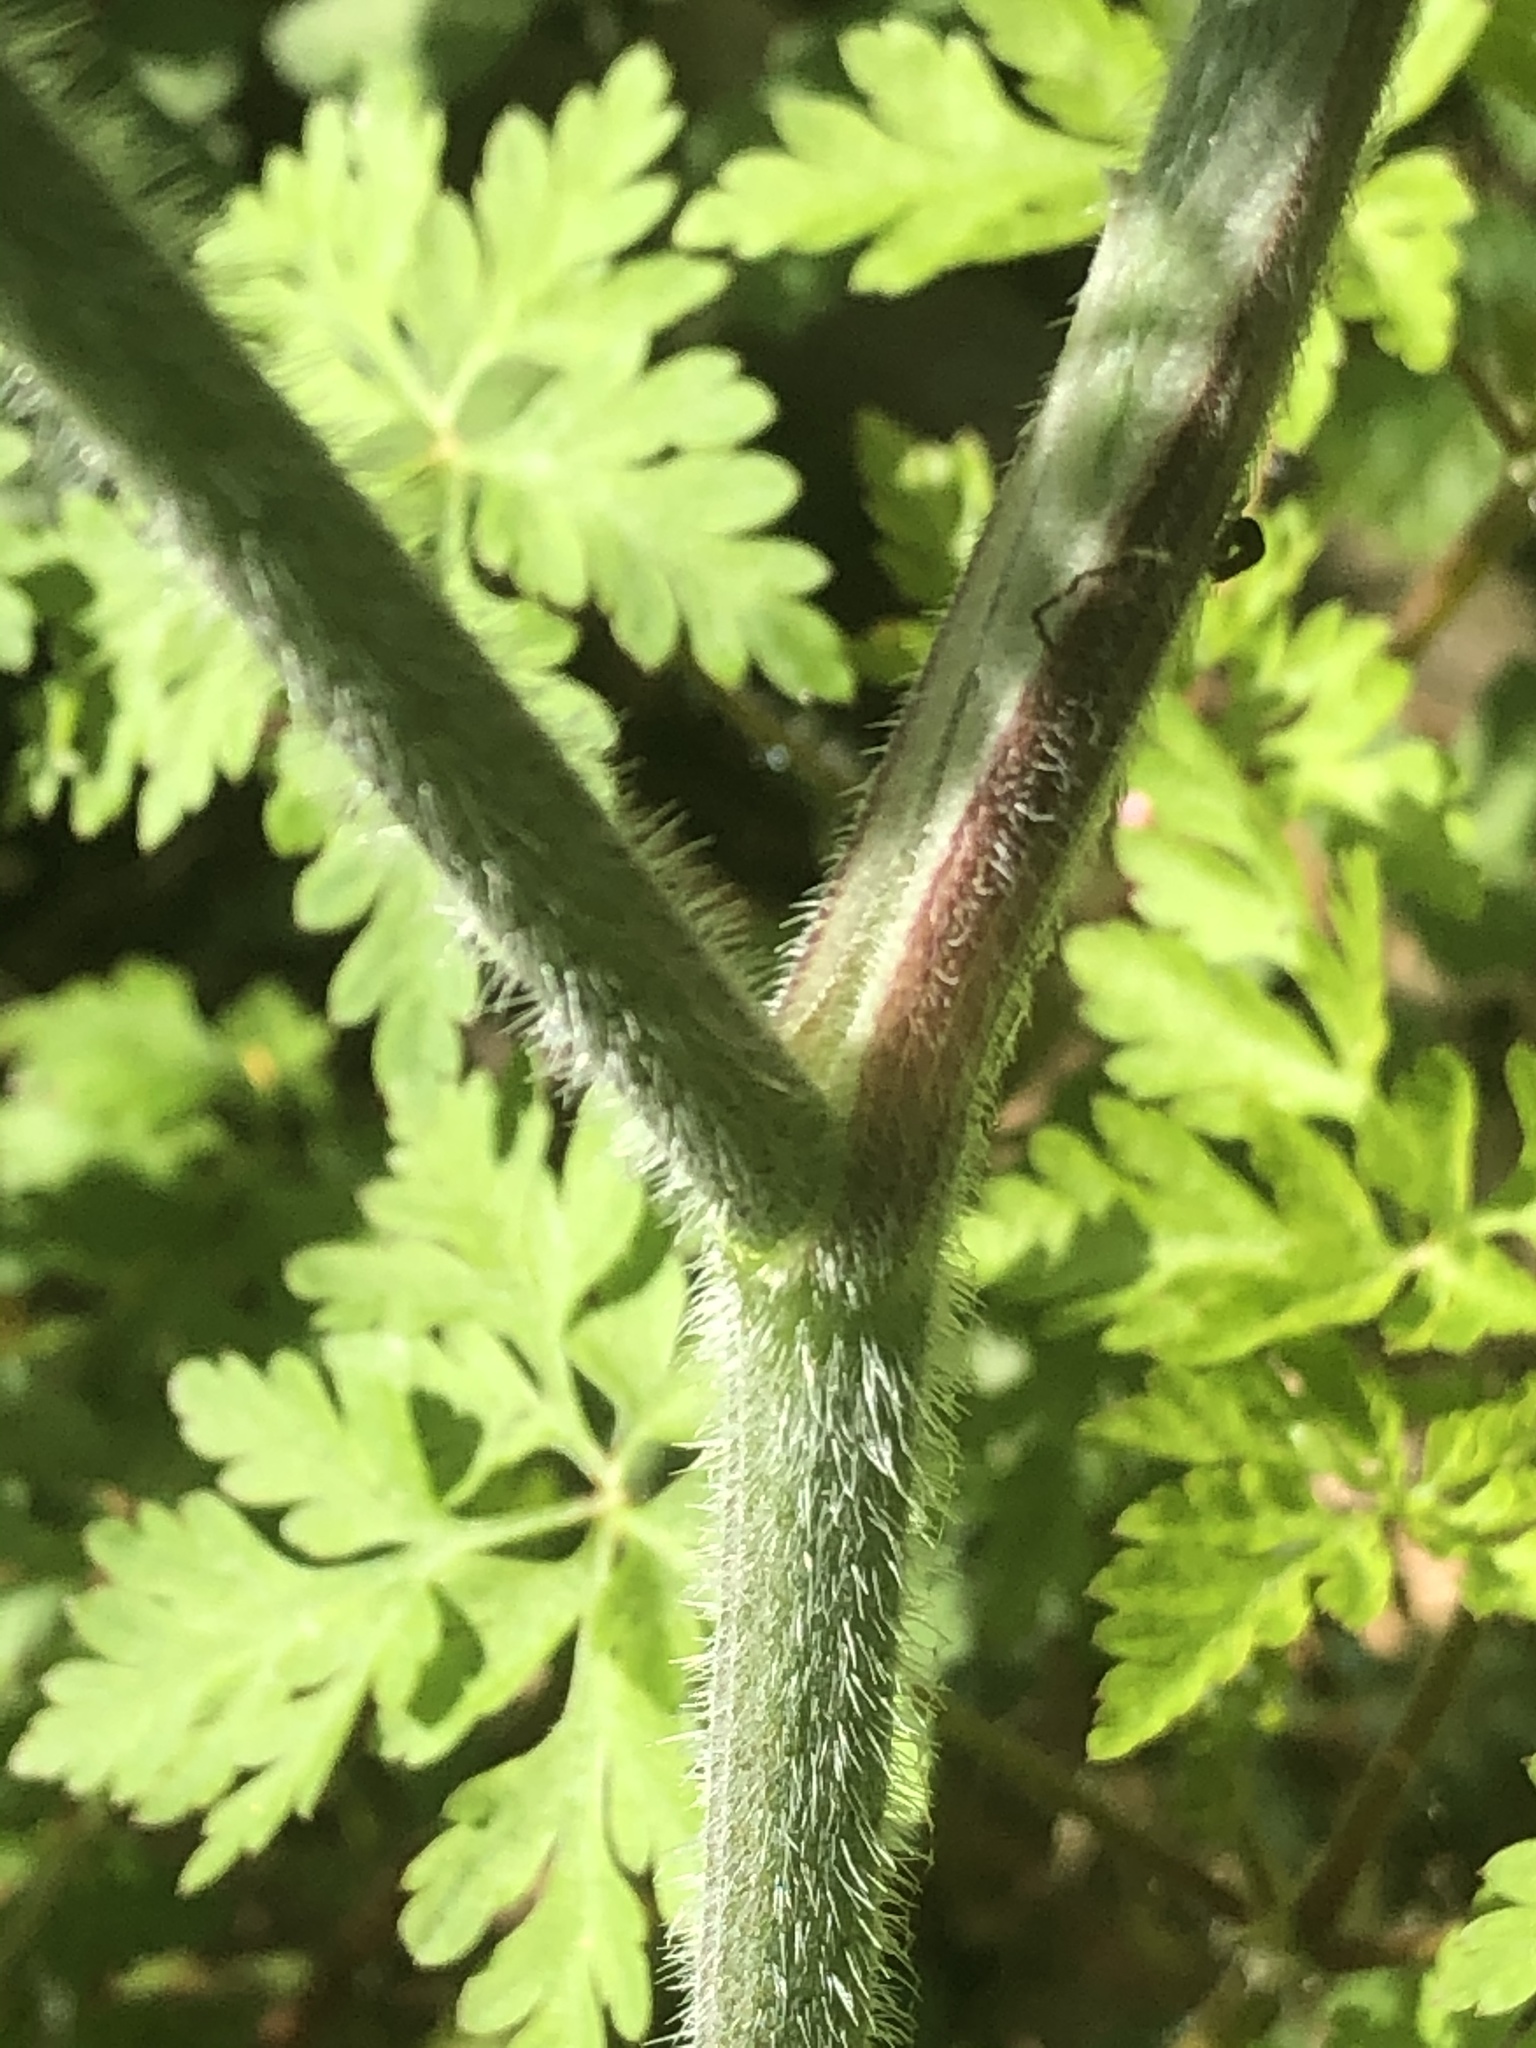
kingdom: Plantae
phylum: Tracheophyta
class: Magnoliopsida
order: Apiales
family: Apiaceae
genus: Chaerophyllum
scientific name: Chaerophyllum temulum
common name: Rough chervil
